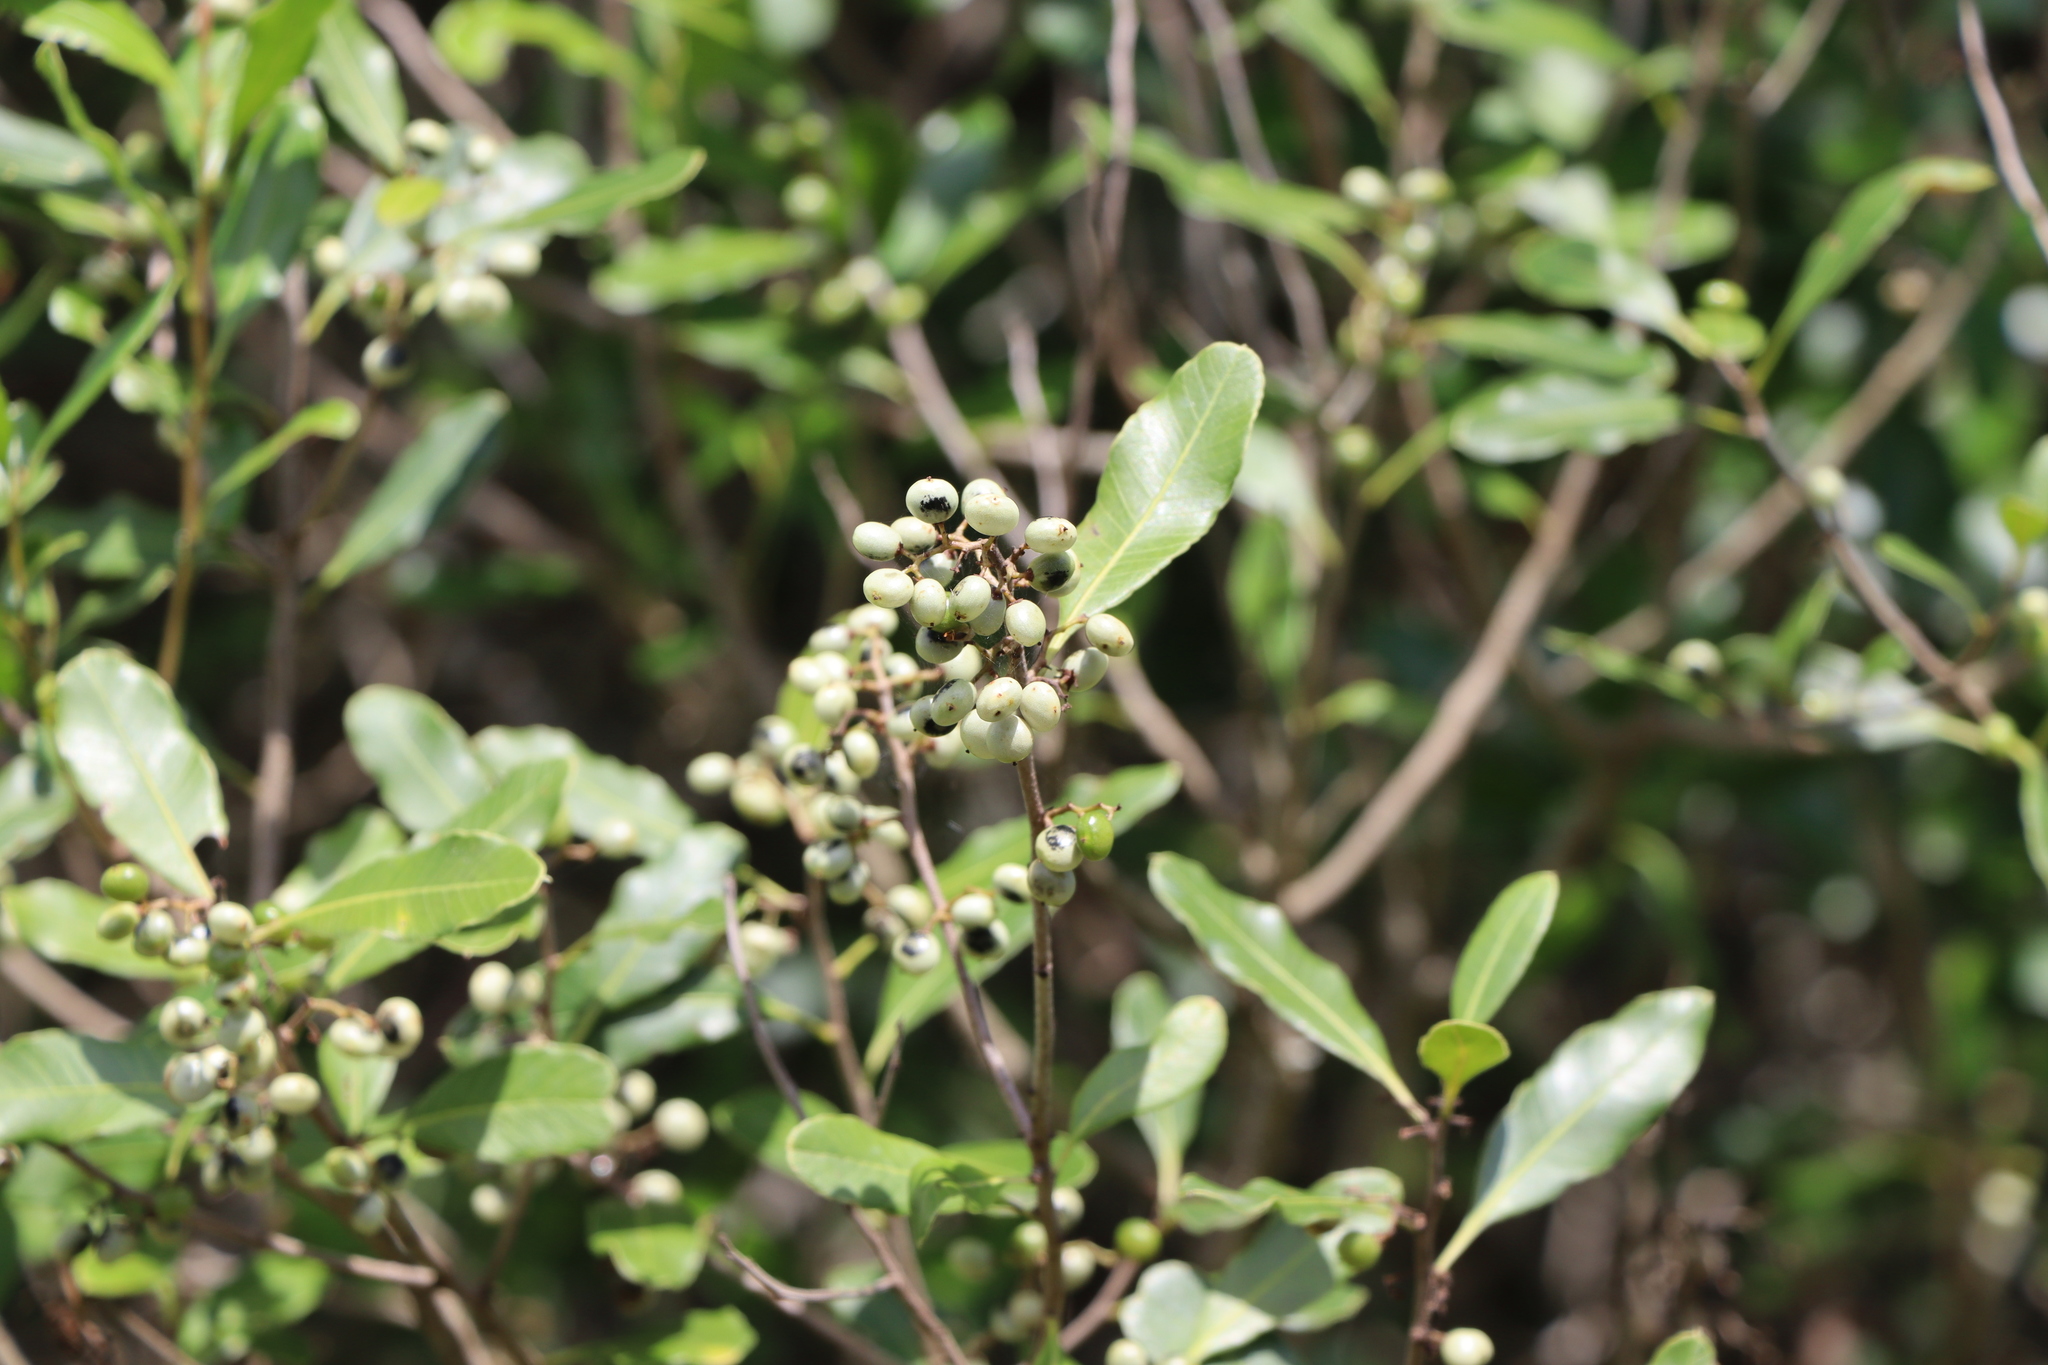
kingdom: Plantae
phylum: Tracheophyta
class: Magnoliopsida
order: Sapindales
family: Anacardiaceae
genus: Lithraea
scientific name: Lithraea brasiliensis
